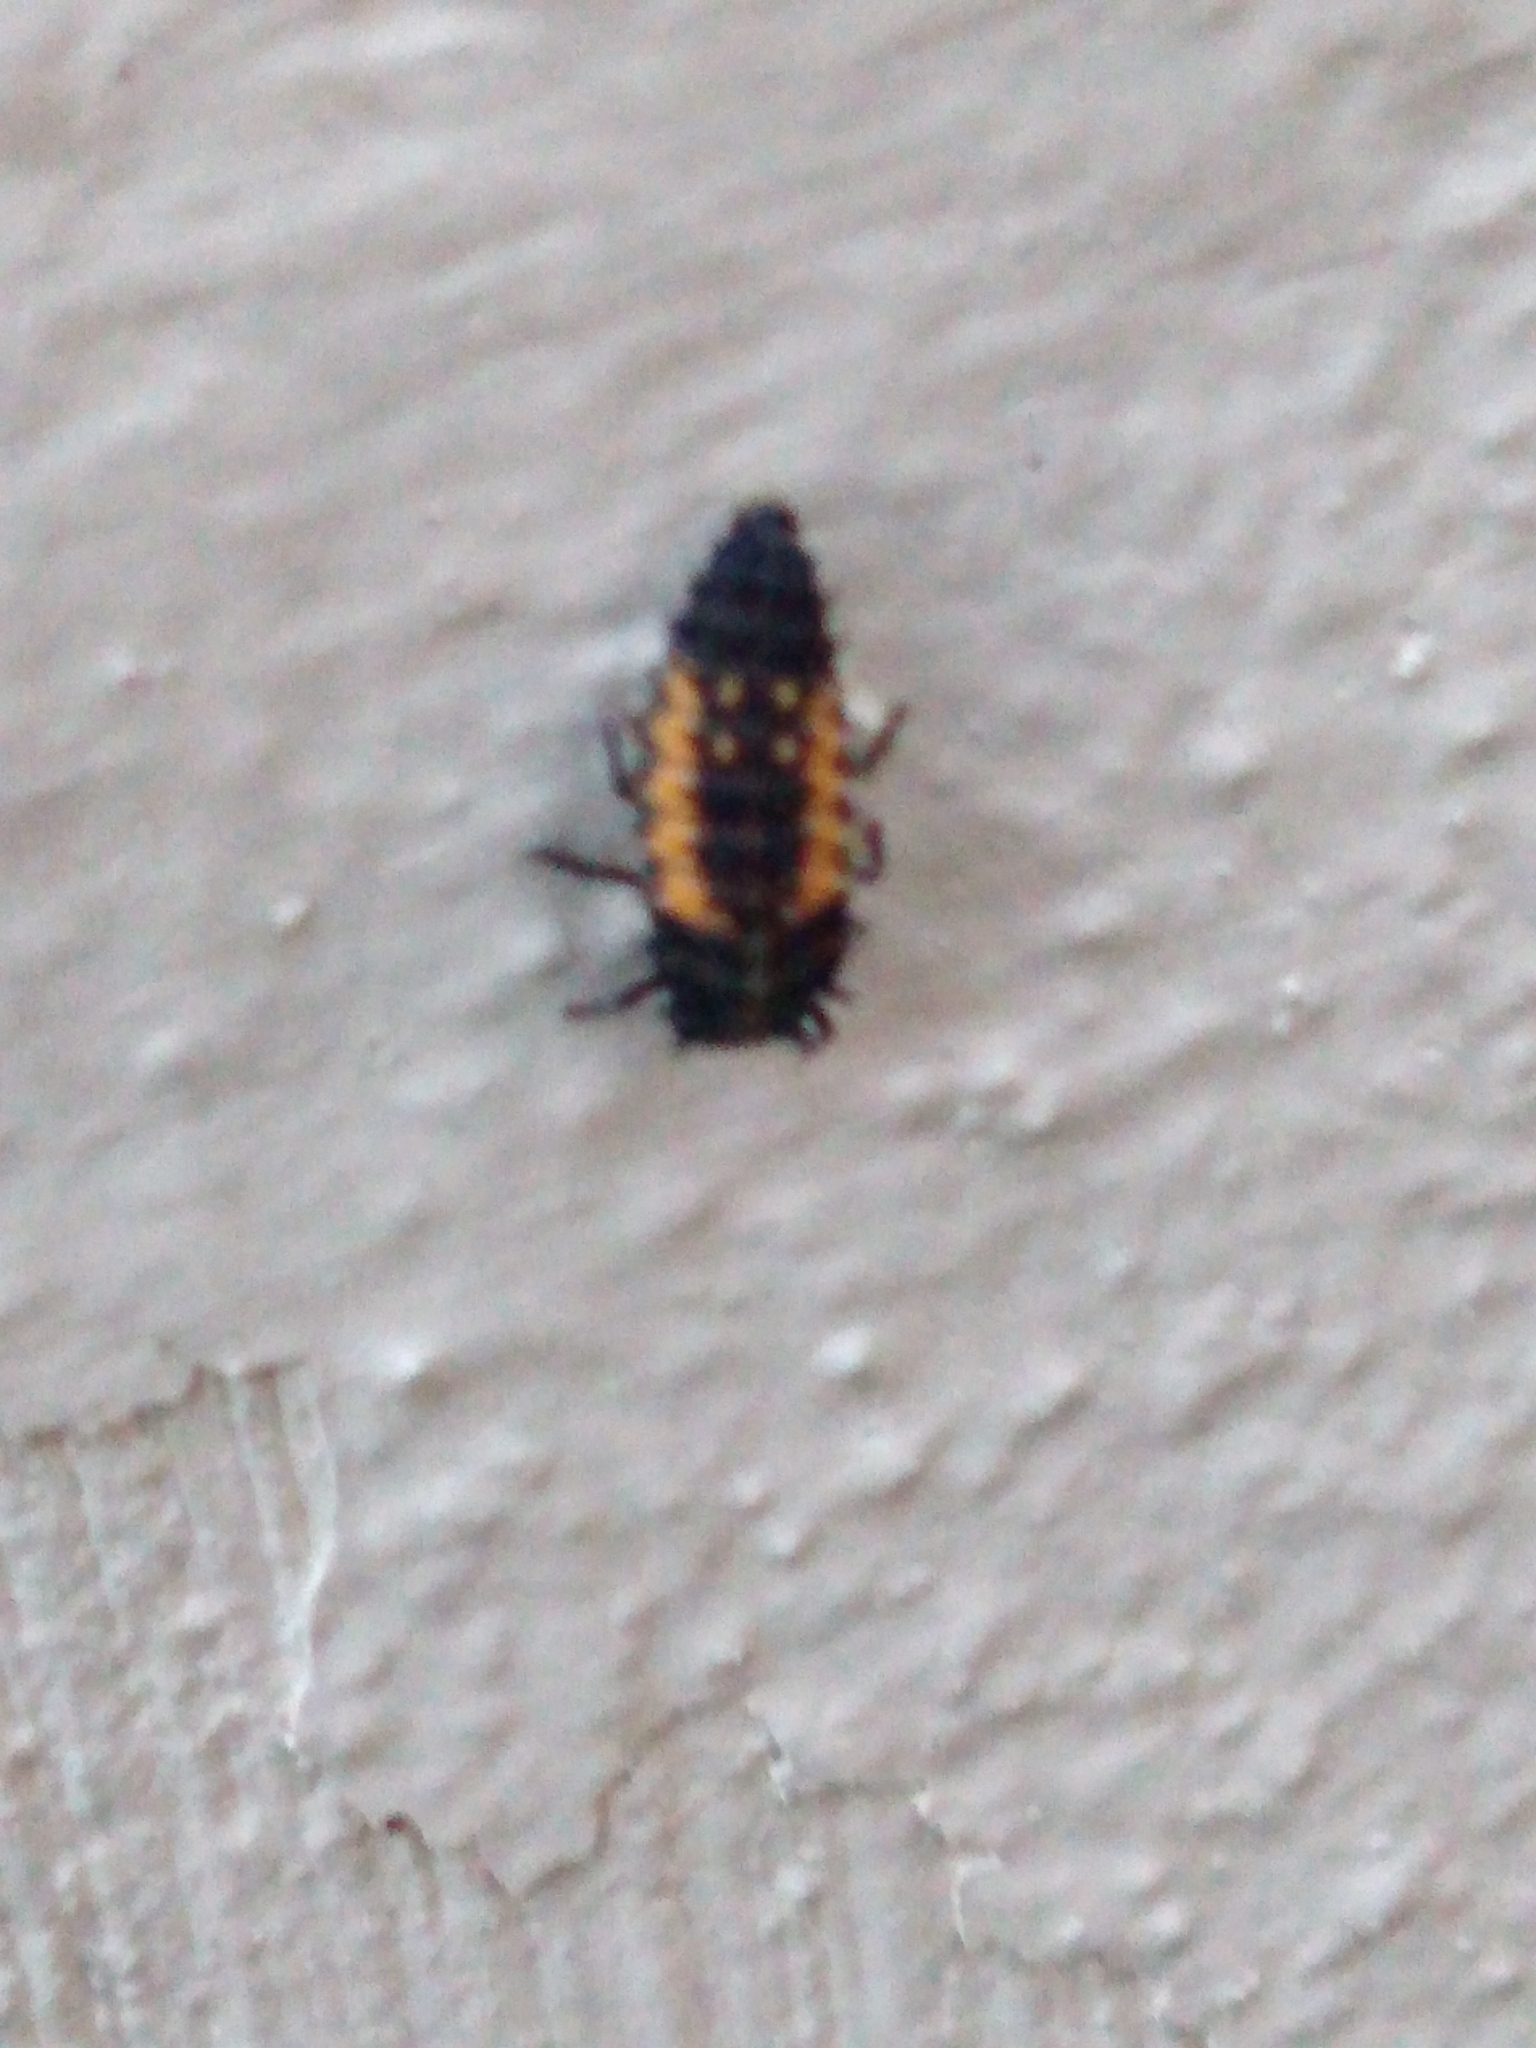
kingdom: Animalia
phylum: Arthropoda
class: Insecta
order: Coleoptera
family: Coccinellidae
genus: Harmonia
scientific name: Harmonia axyridis
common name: Harlequin ladybird
